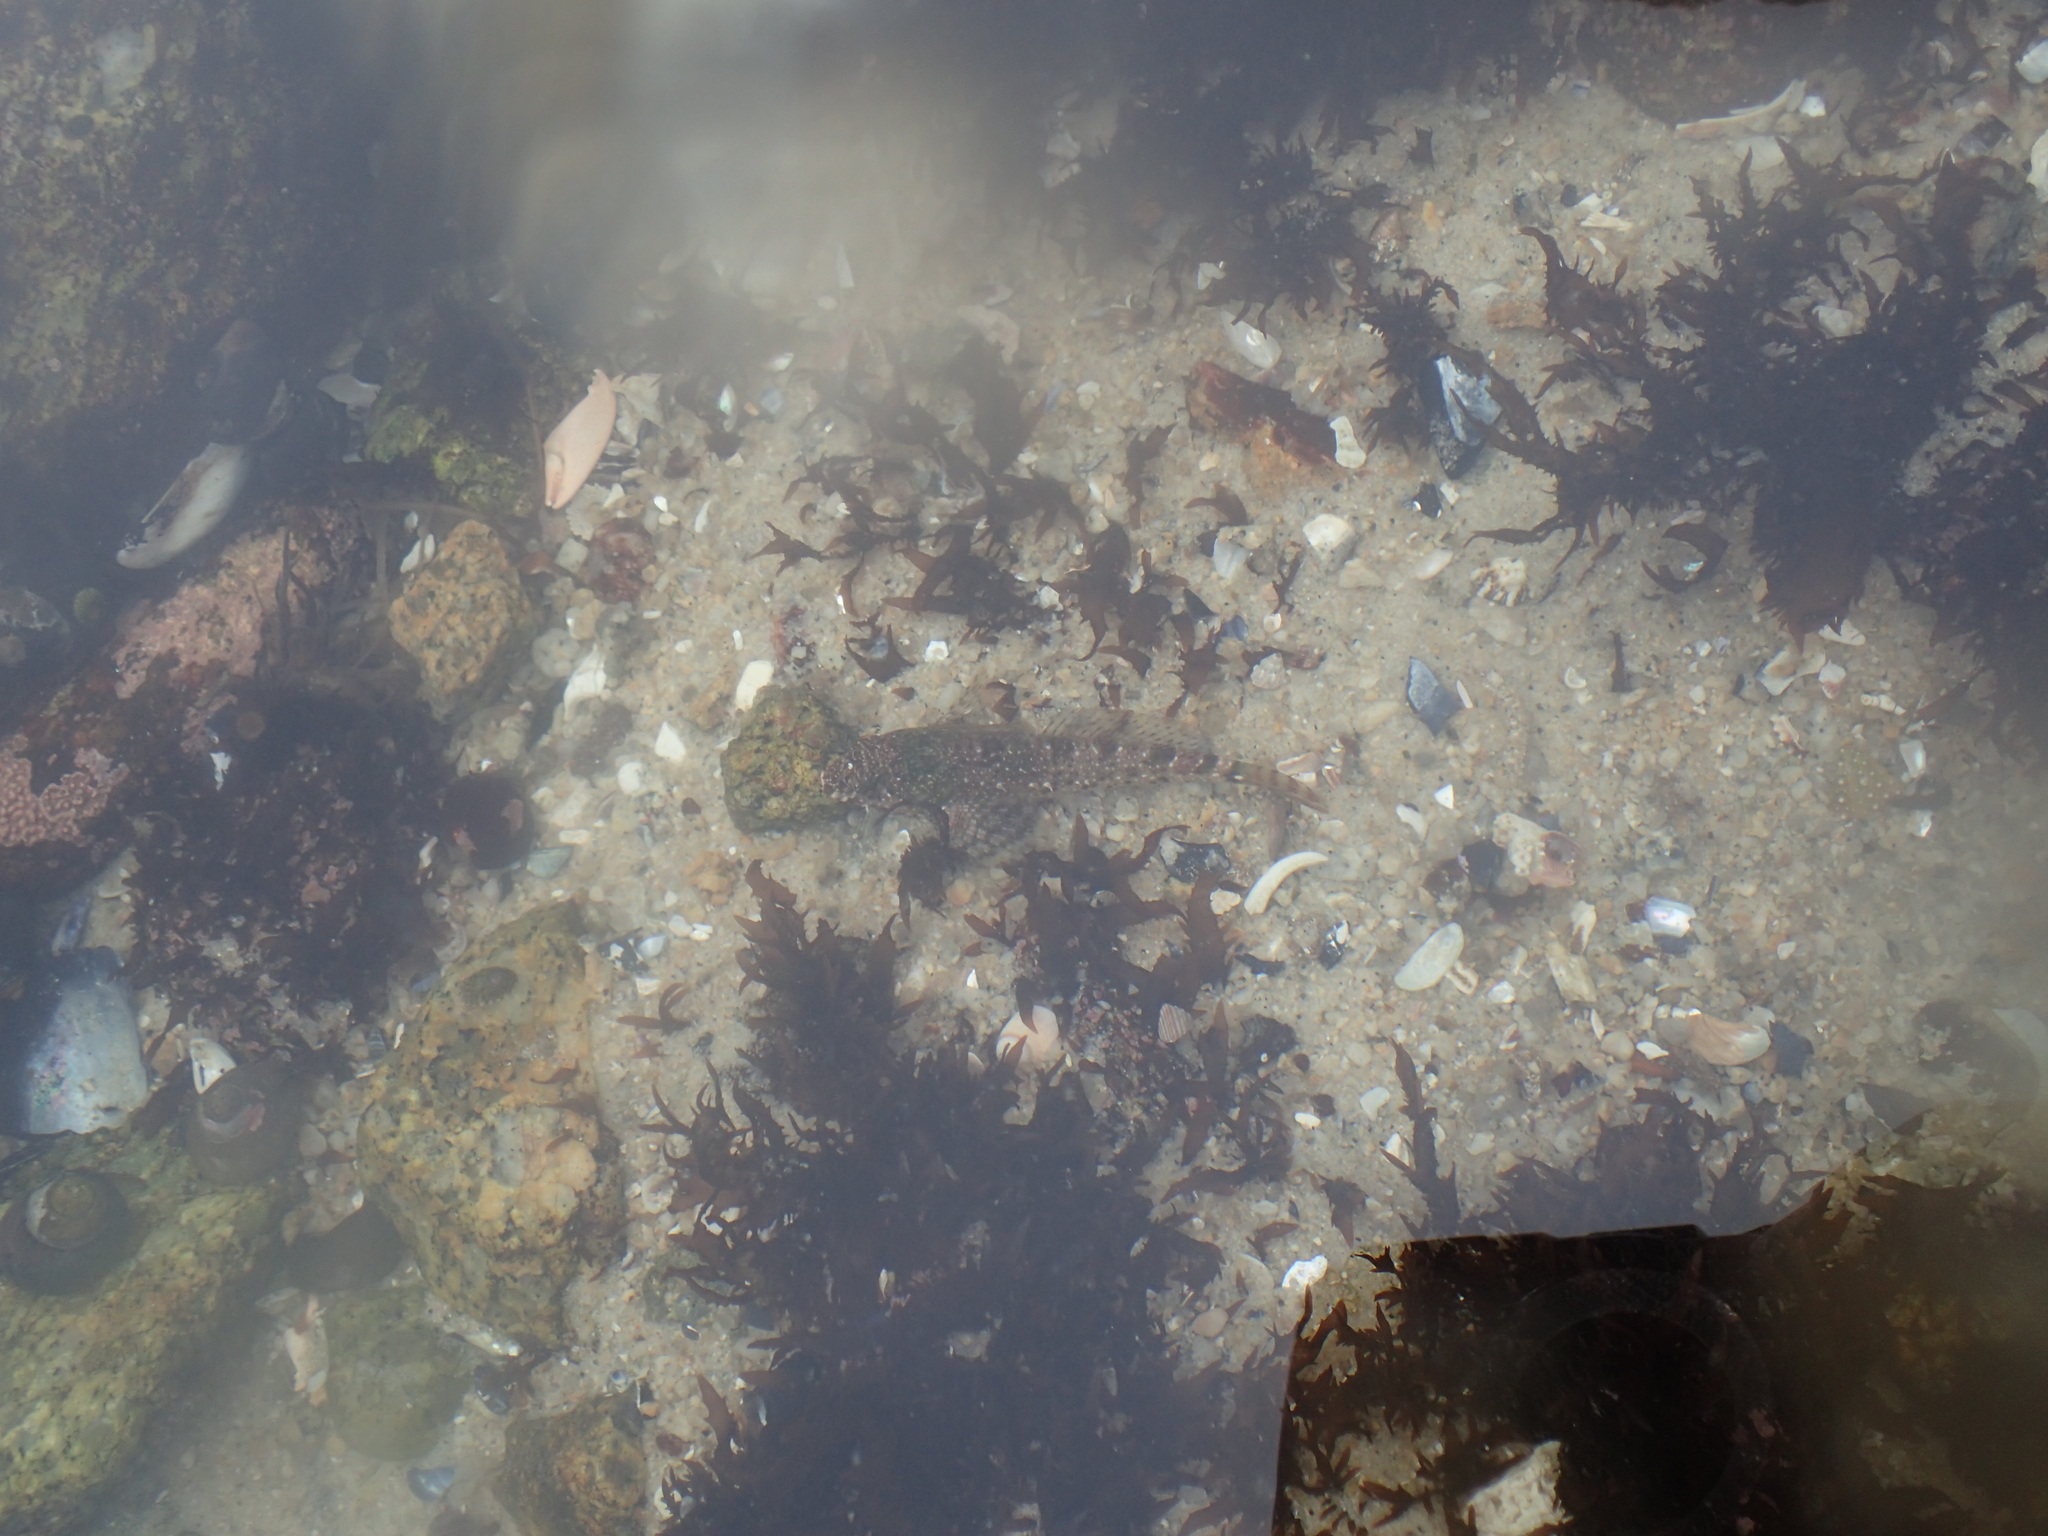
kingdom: Animalia
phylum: Chordata
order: Scorpaeniformes
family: Cottidae
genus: Clinocottus
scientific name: Clinocottus analis
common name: Woolly sculpin
